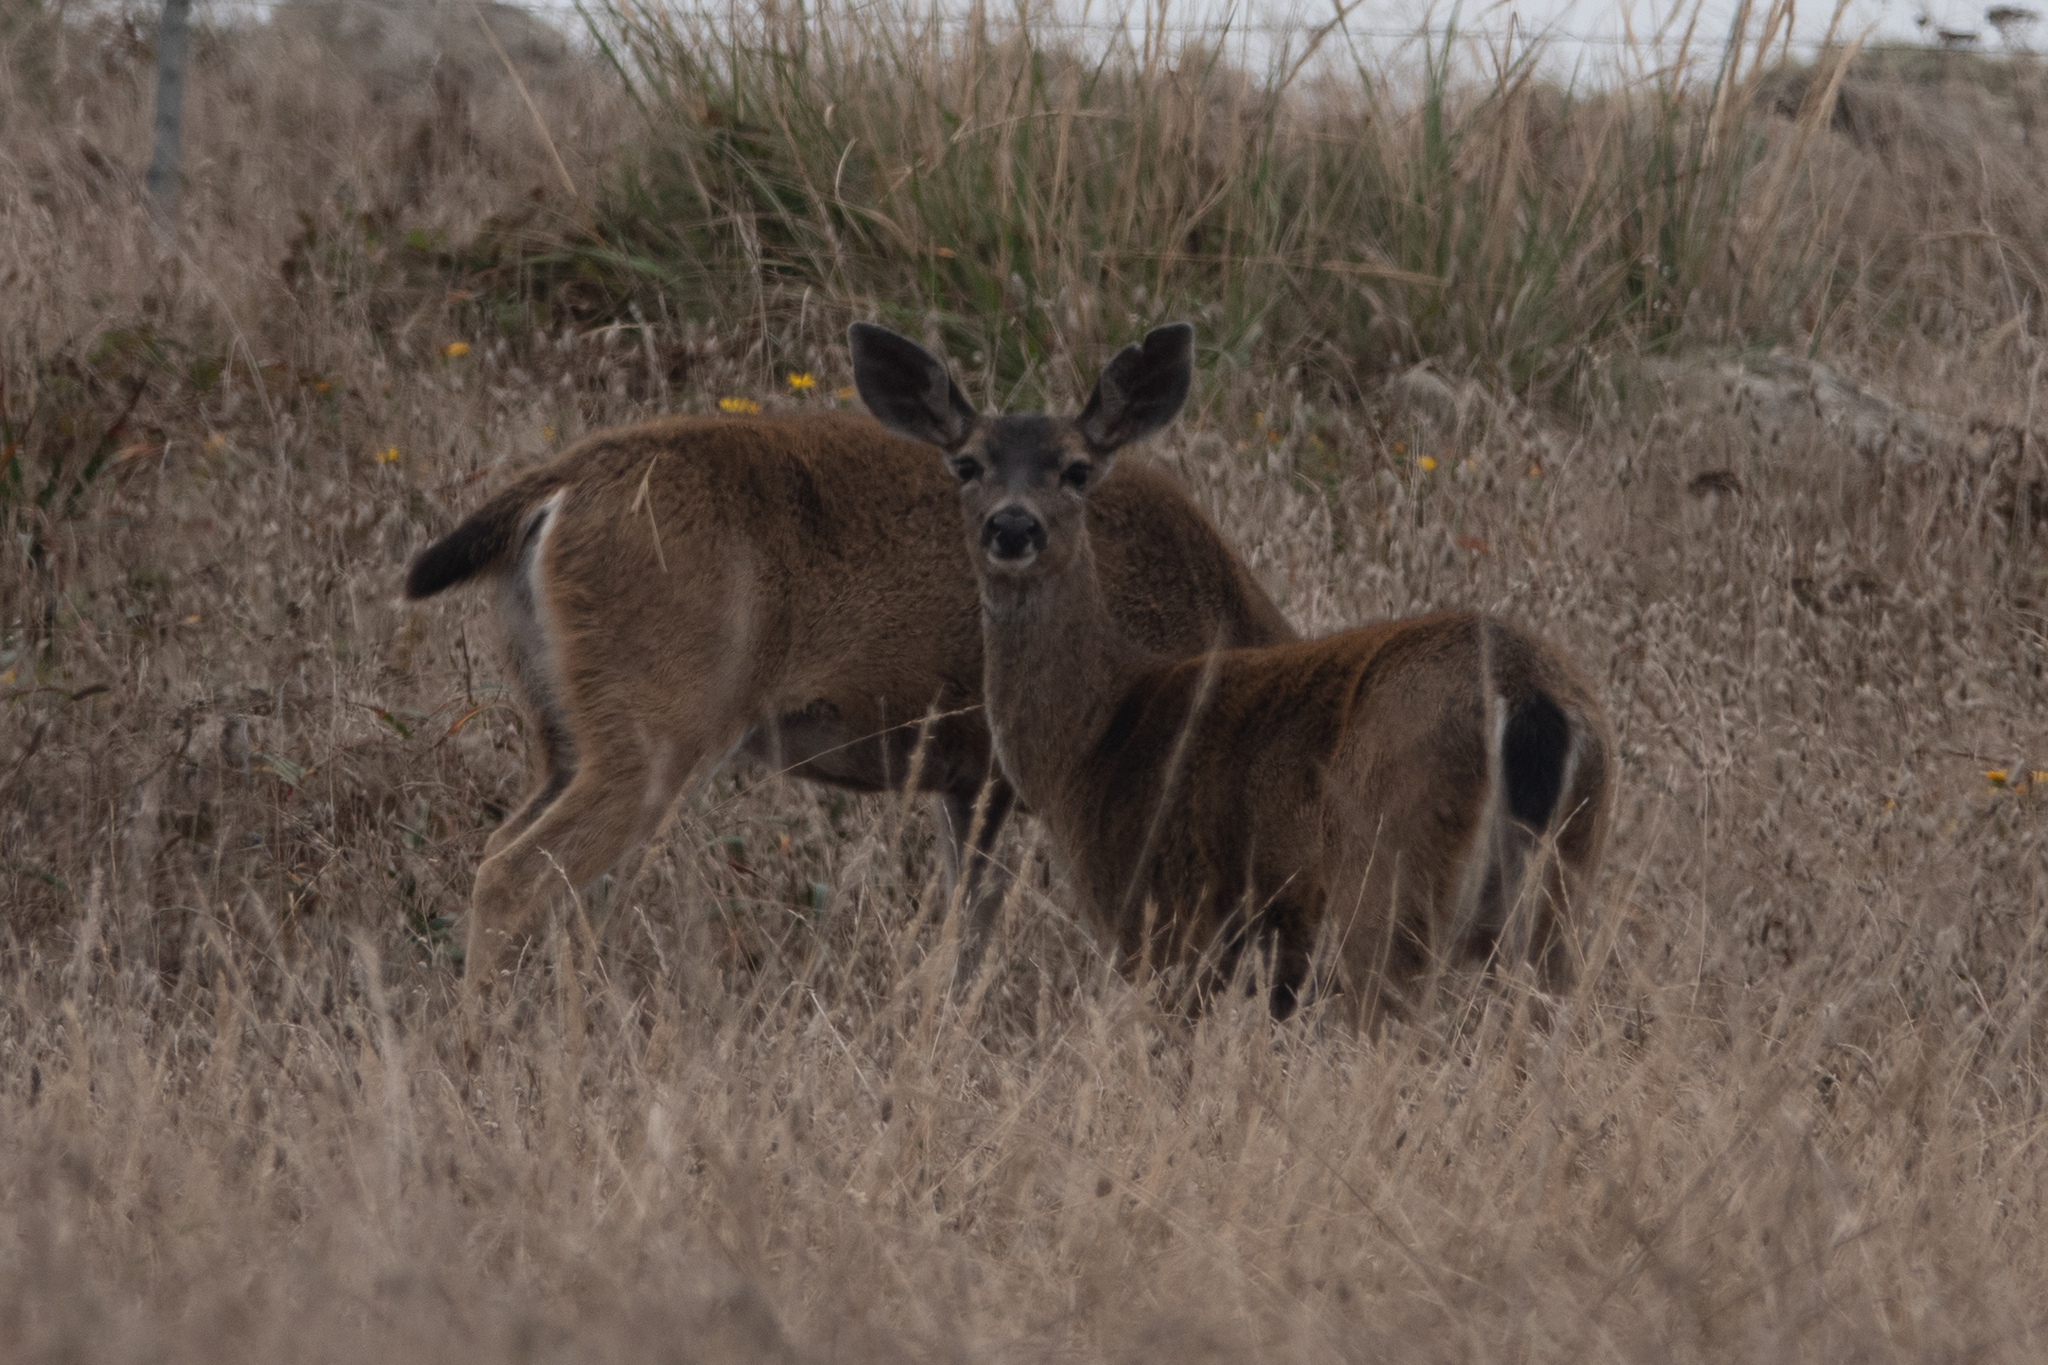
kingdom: Animalia
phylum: Chordata
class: Mammalia
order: Artiodactyla
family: Cervidae
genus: Odocoileus
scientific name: Odocoileus hemionus
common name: Mule deer
